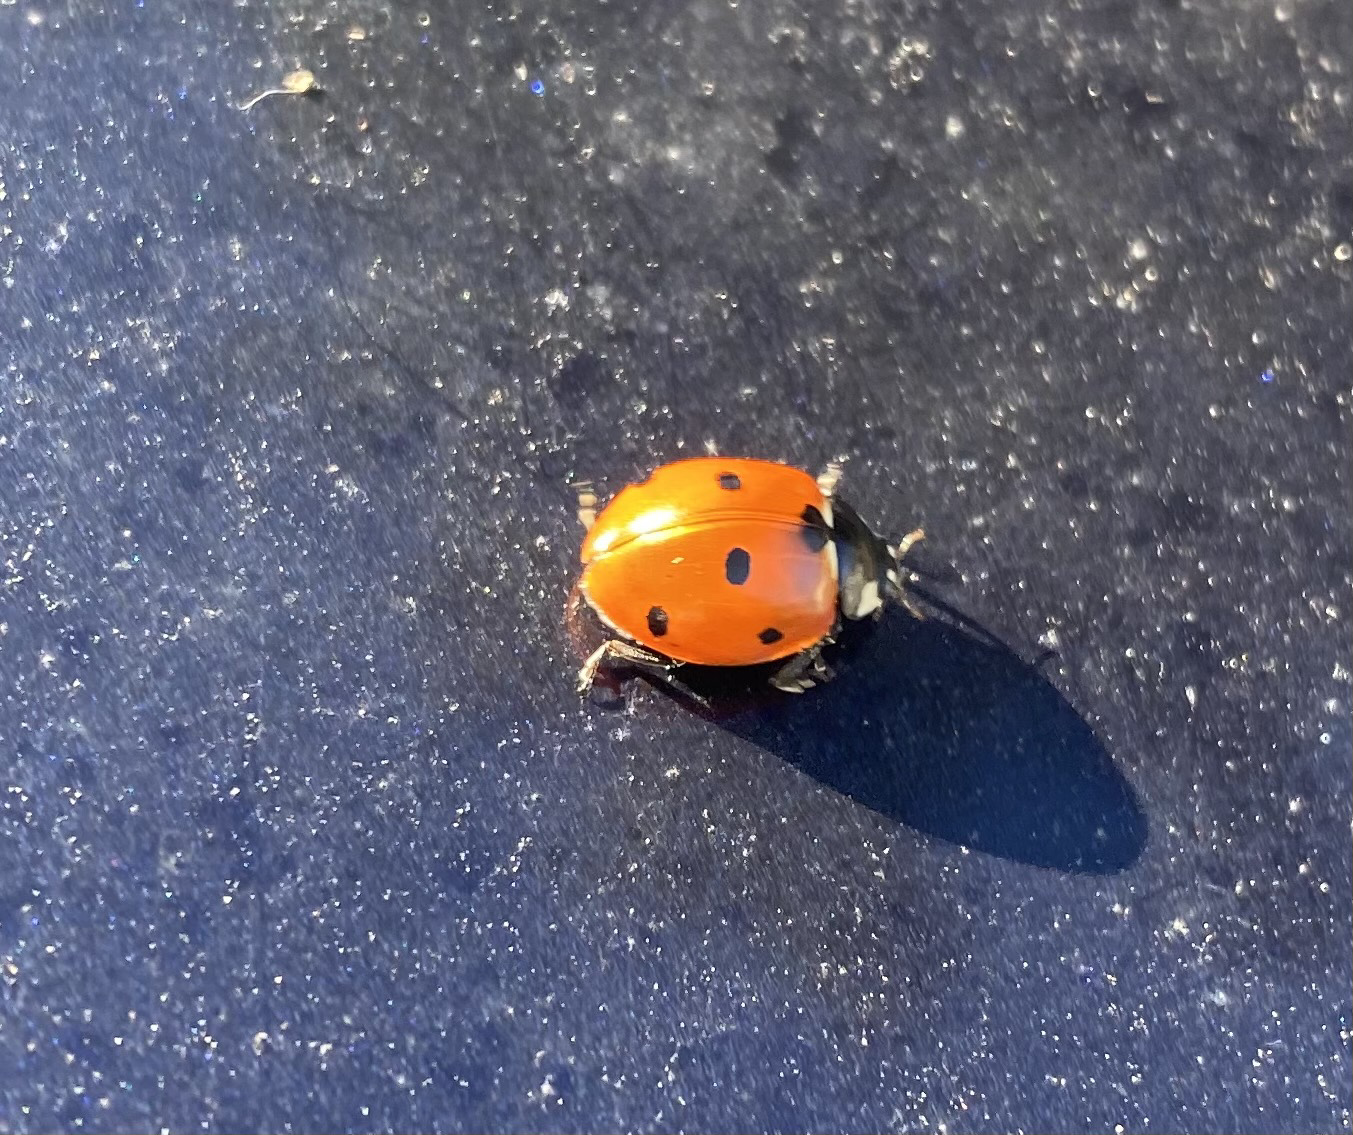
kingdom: Animalia
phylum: Arthropoda
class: Insecta
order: Coleoptera
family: Coccinellidae
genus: Coccinella
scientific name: Coccinella septempunctata
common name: Sevenspotted lady beetle
